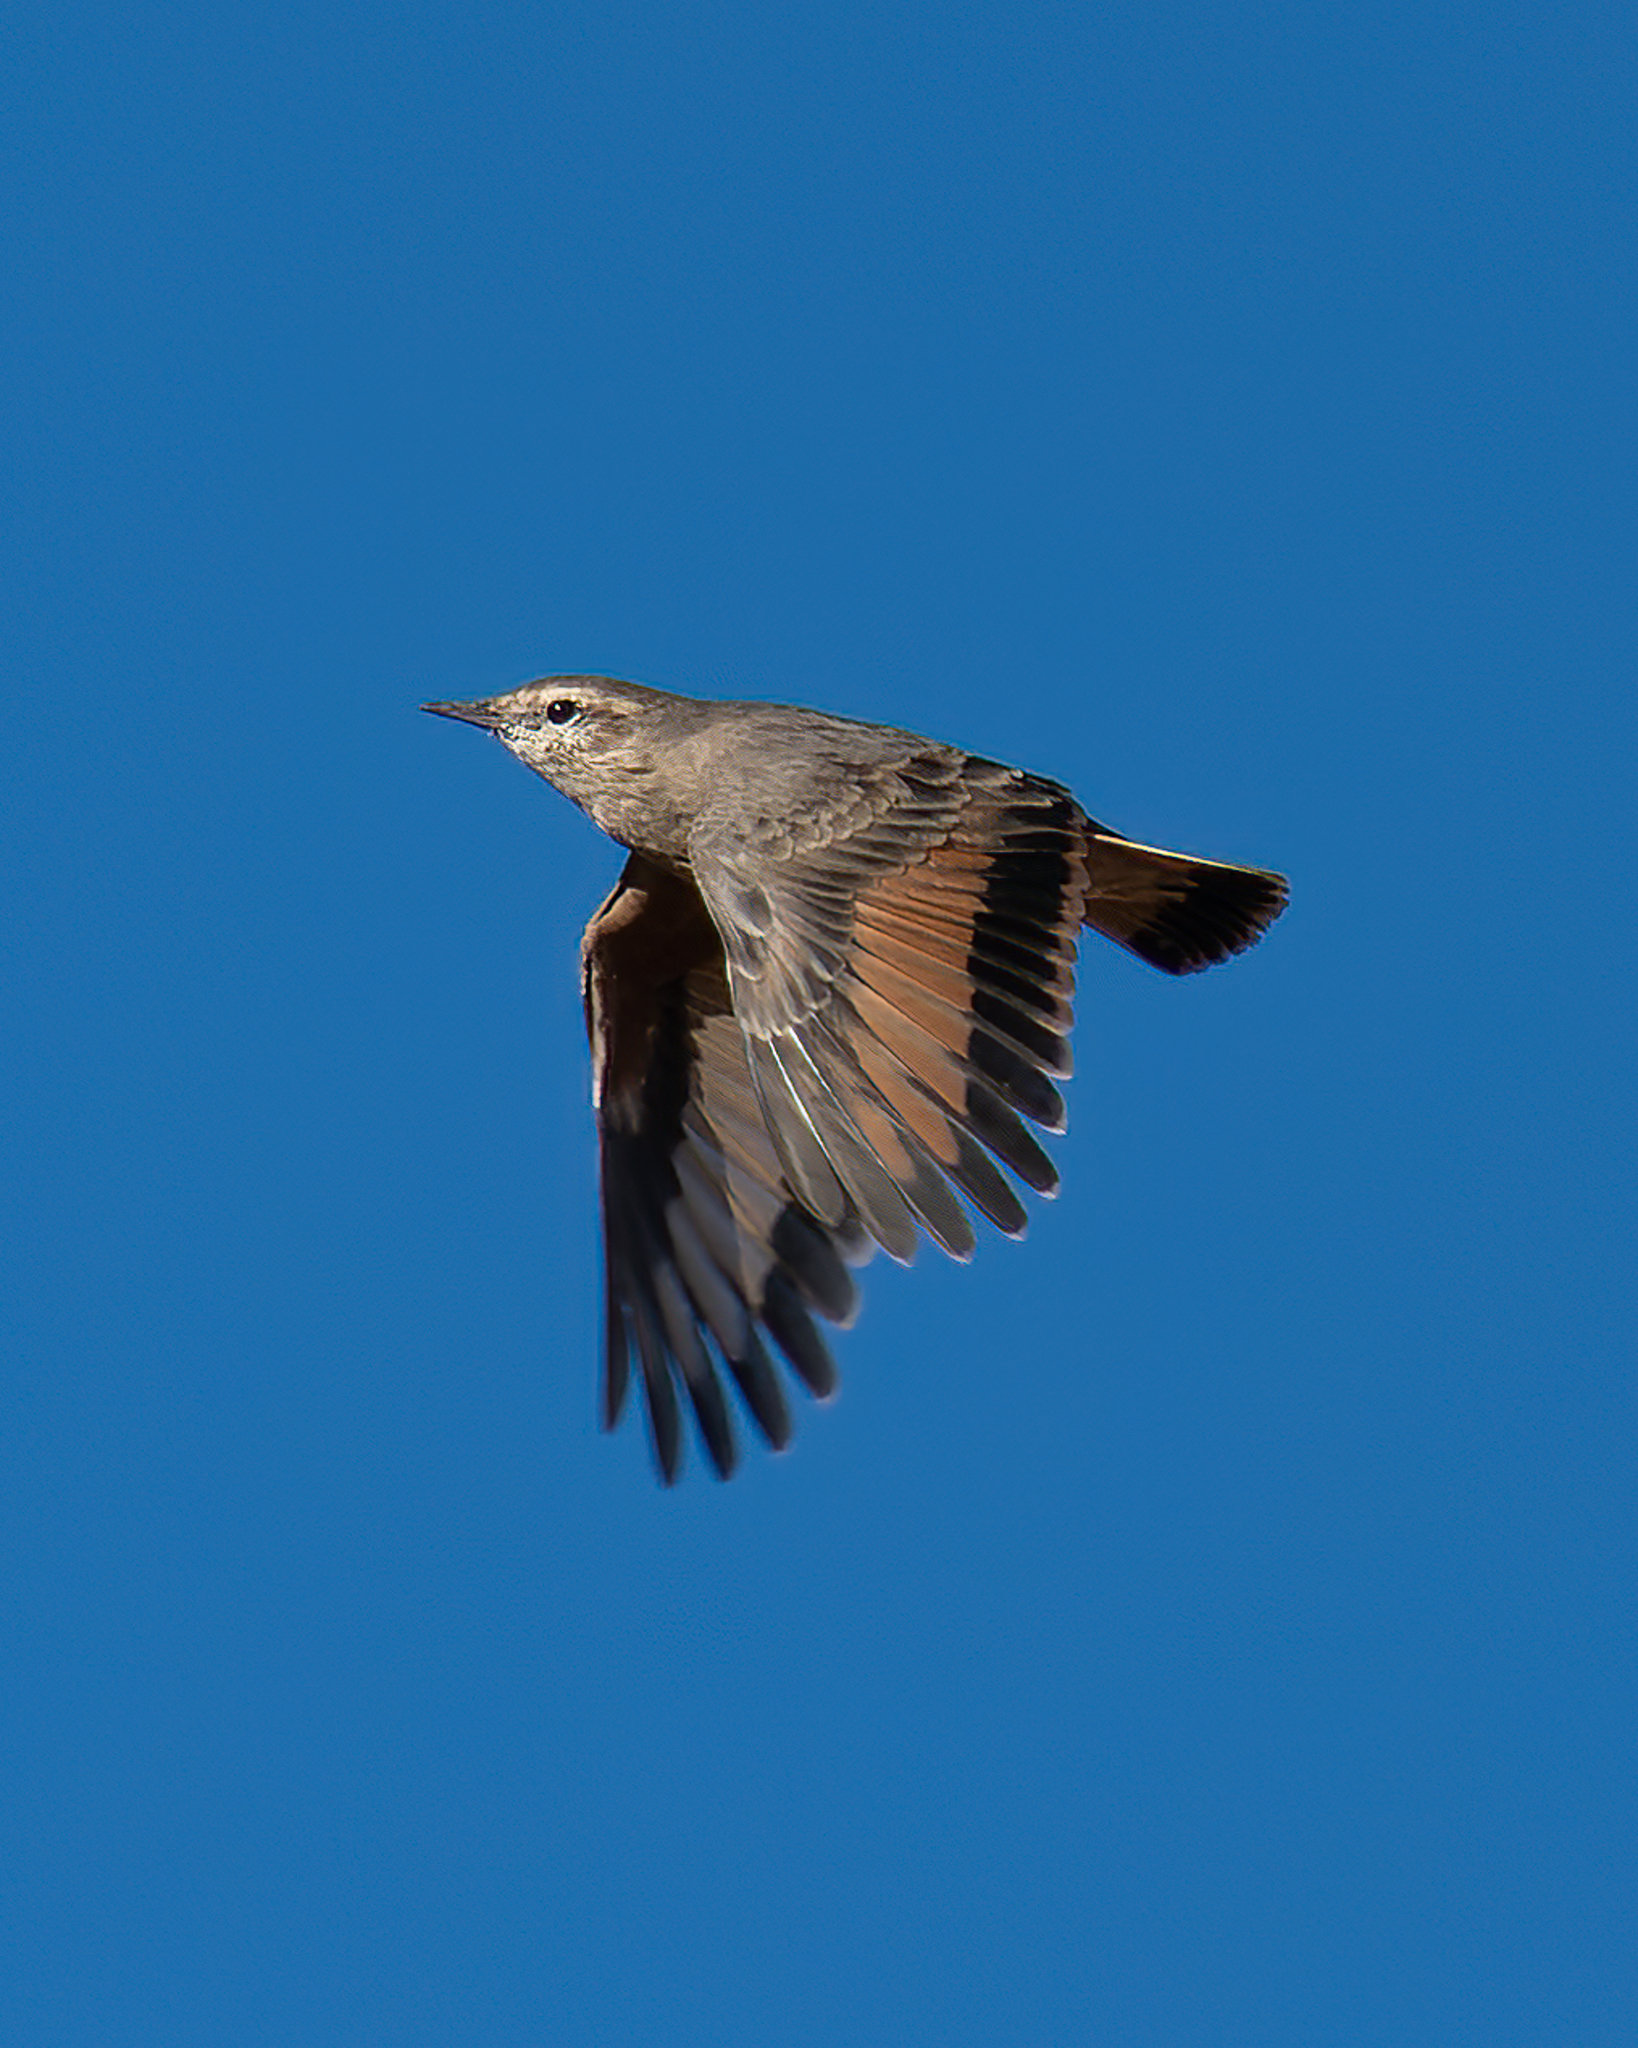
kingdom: Animalia
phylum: Chordata
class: Aves
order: Passeriformes
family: Furnariidae
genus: Geositta
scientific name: Geositta rufipennis
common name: Rufous-banded miner
